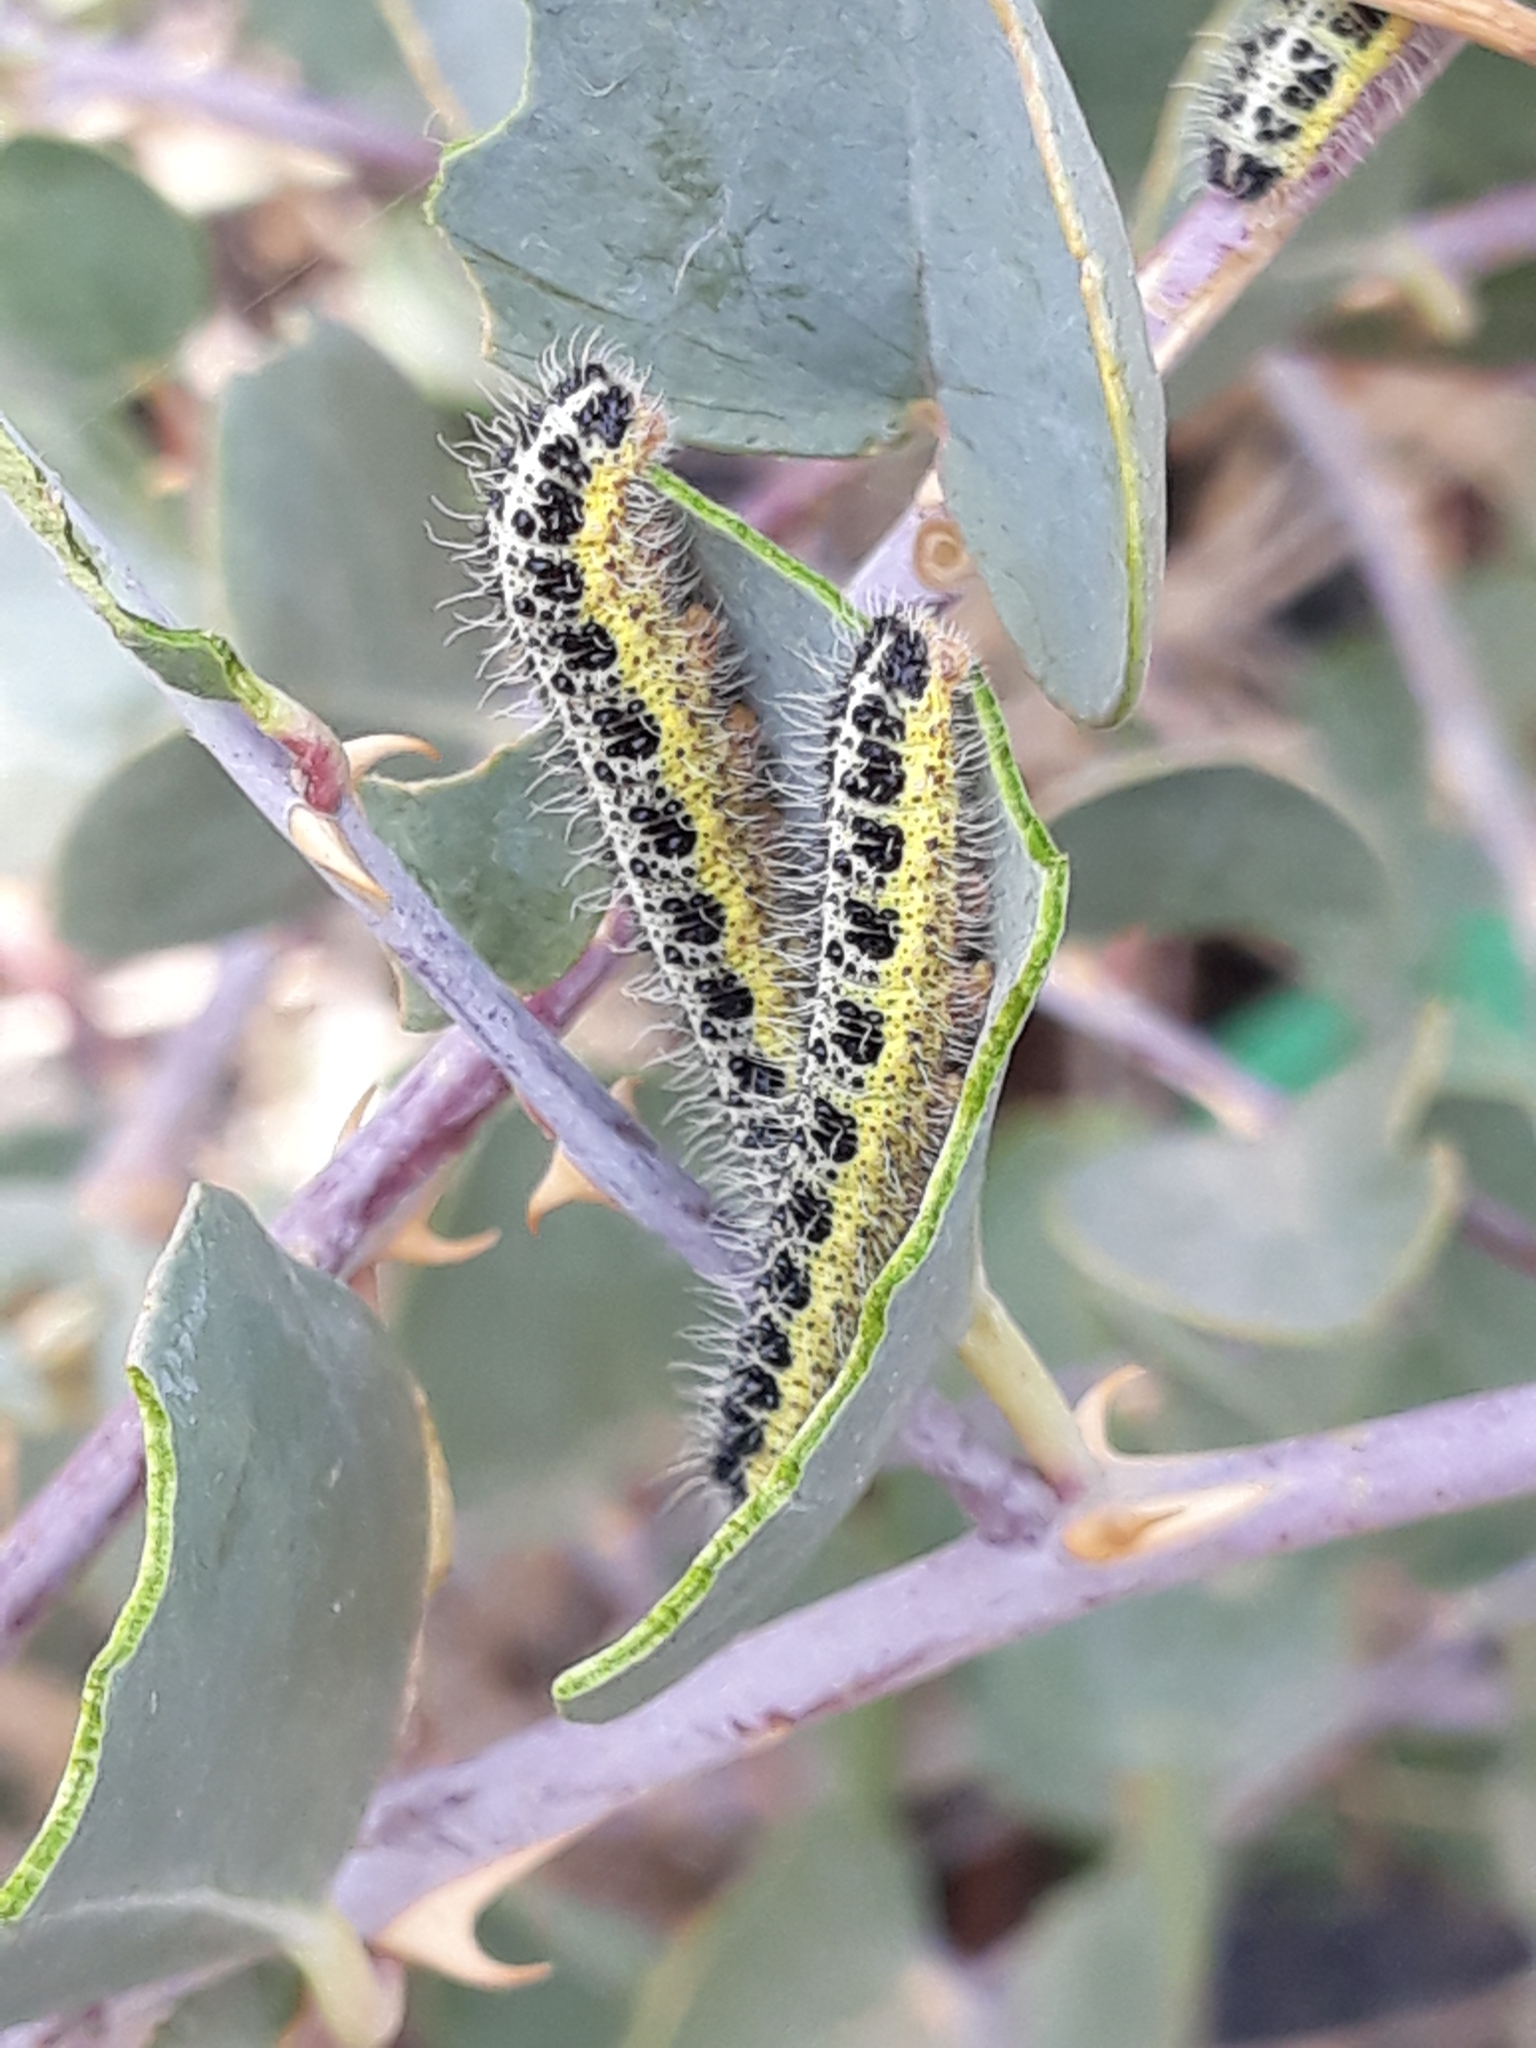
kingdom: Animalia
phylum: Arthropoda
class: Insecta
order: Lepidoptera
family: Pieridae
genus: Pieris
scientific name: Pieris brassicae
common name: Large white
